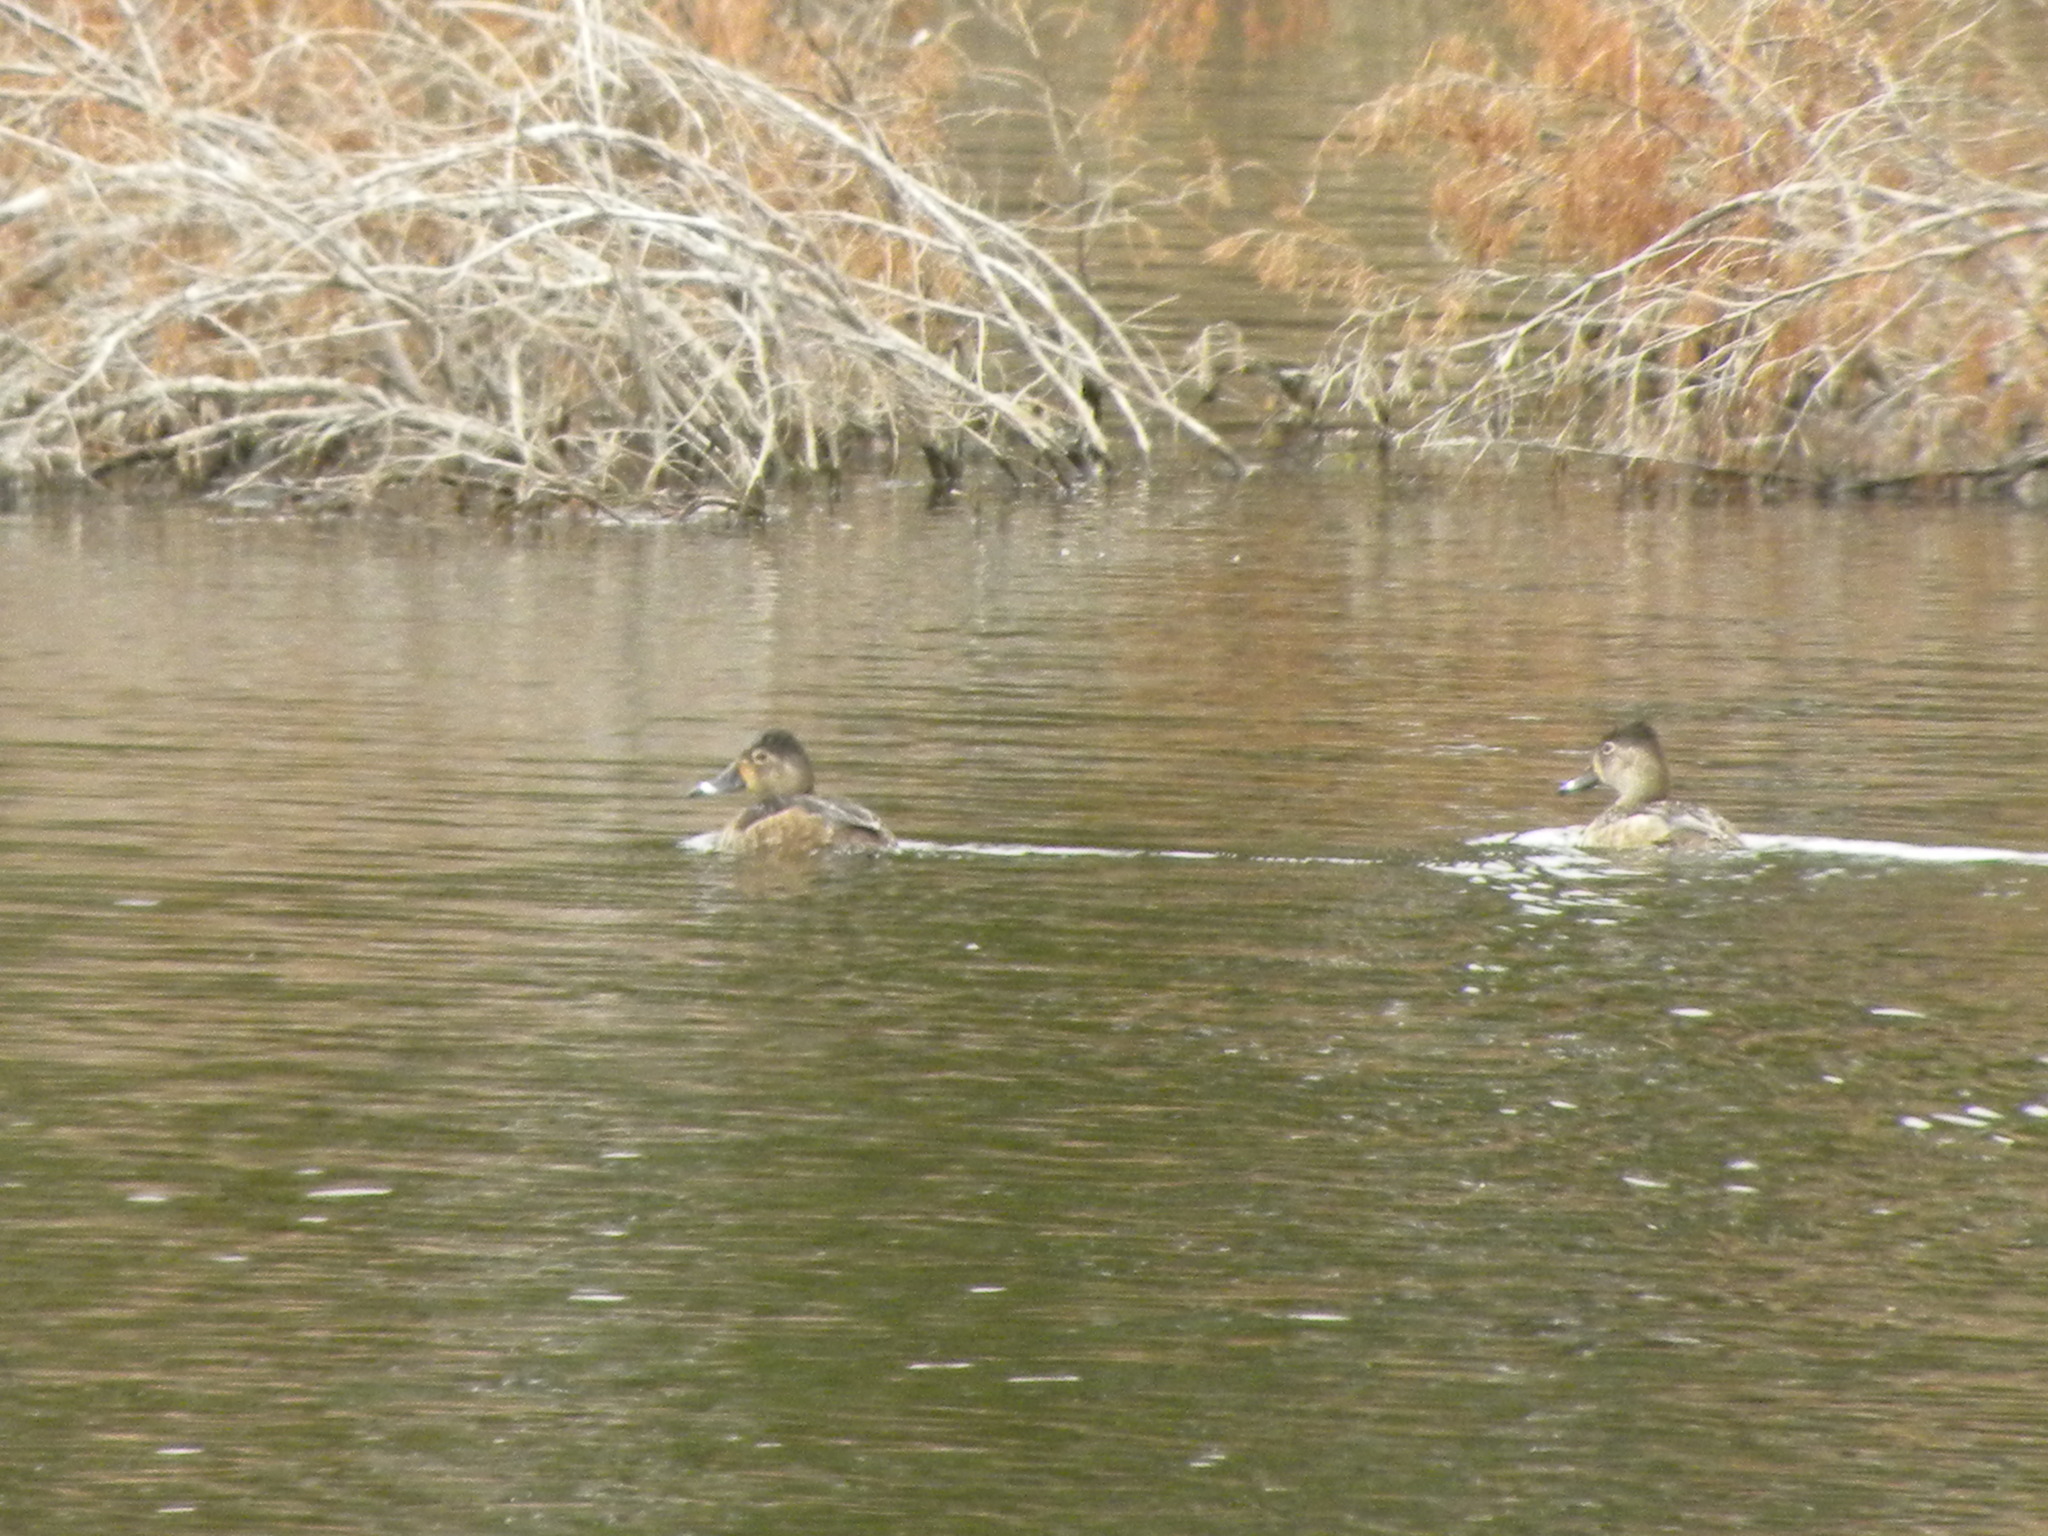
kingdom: Animalia
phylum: Chordata
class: Aves
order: Anseriformes
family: Anatidae
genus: Aythya
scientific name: Aythya collaris
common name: Ring-necked duck
